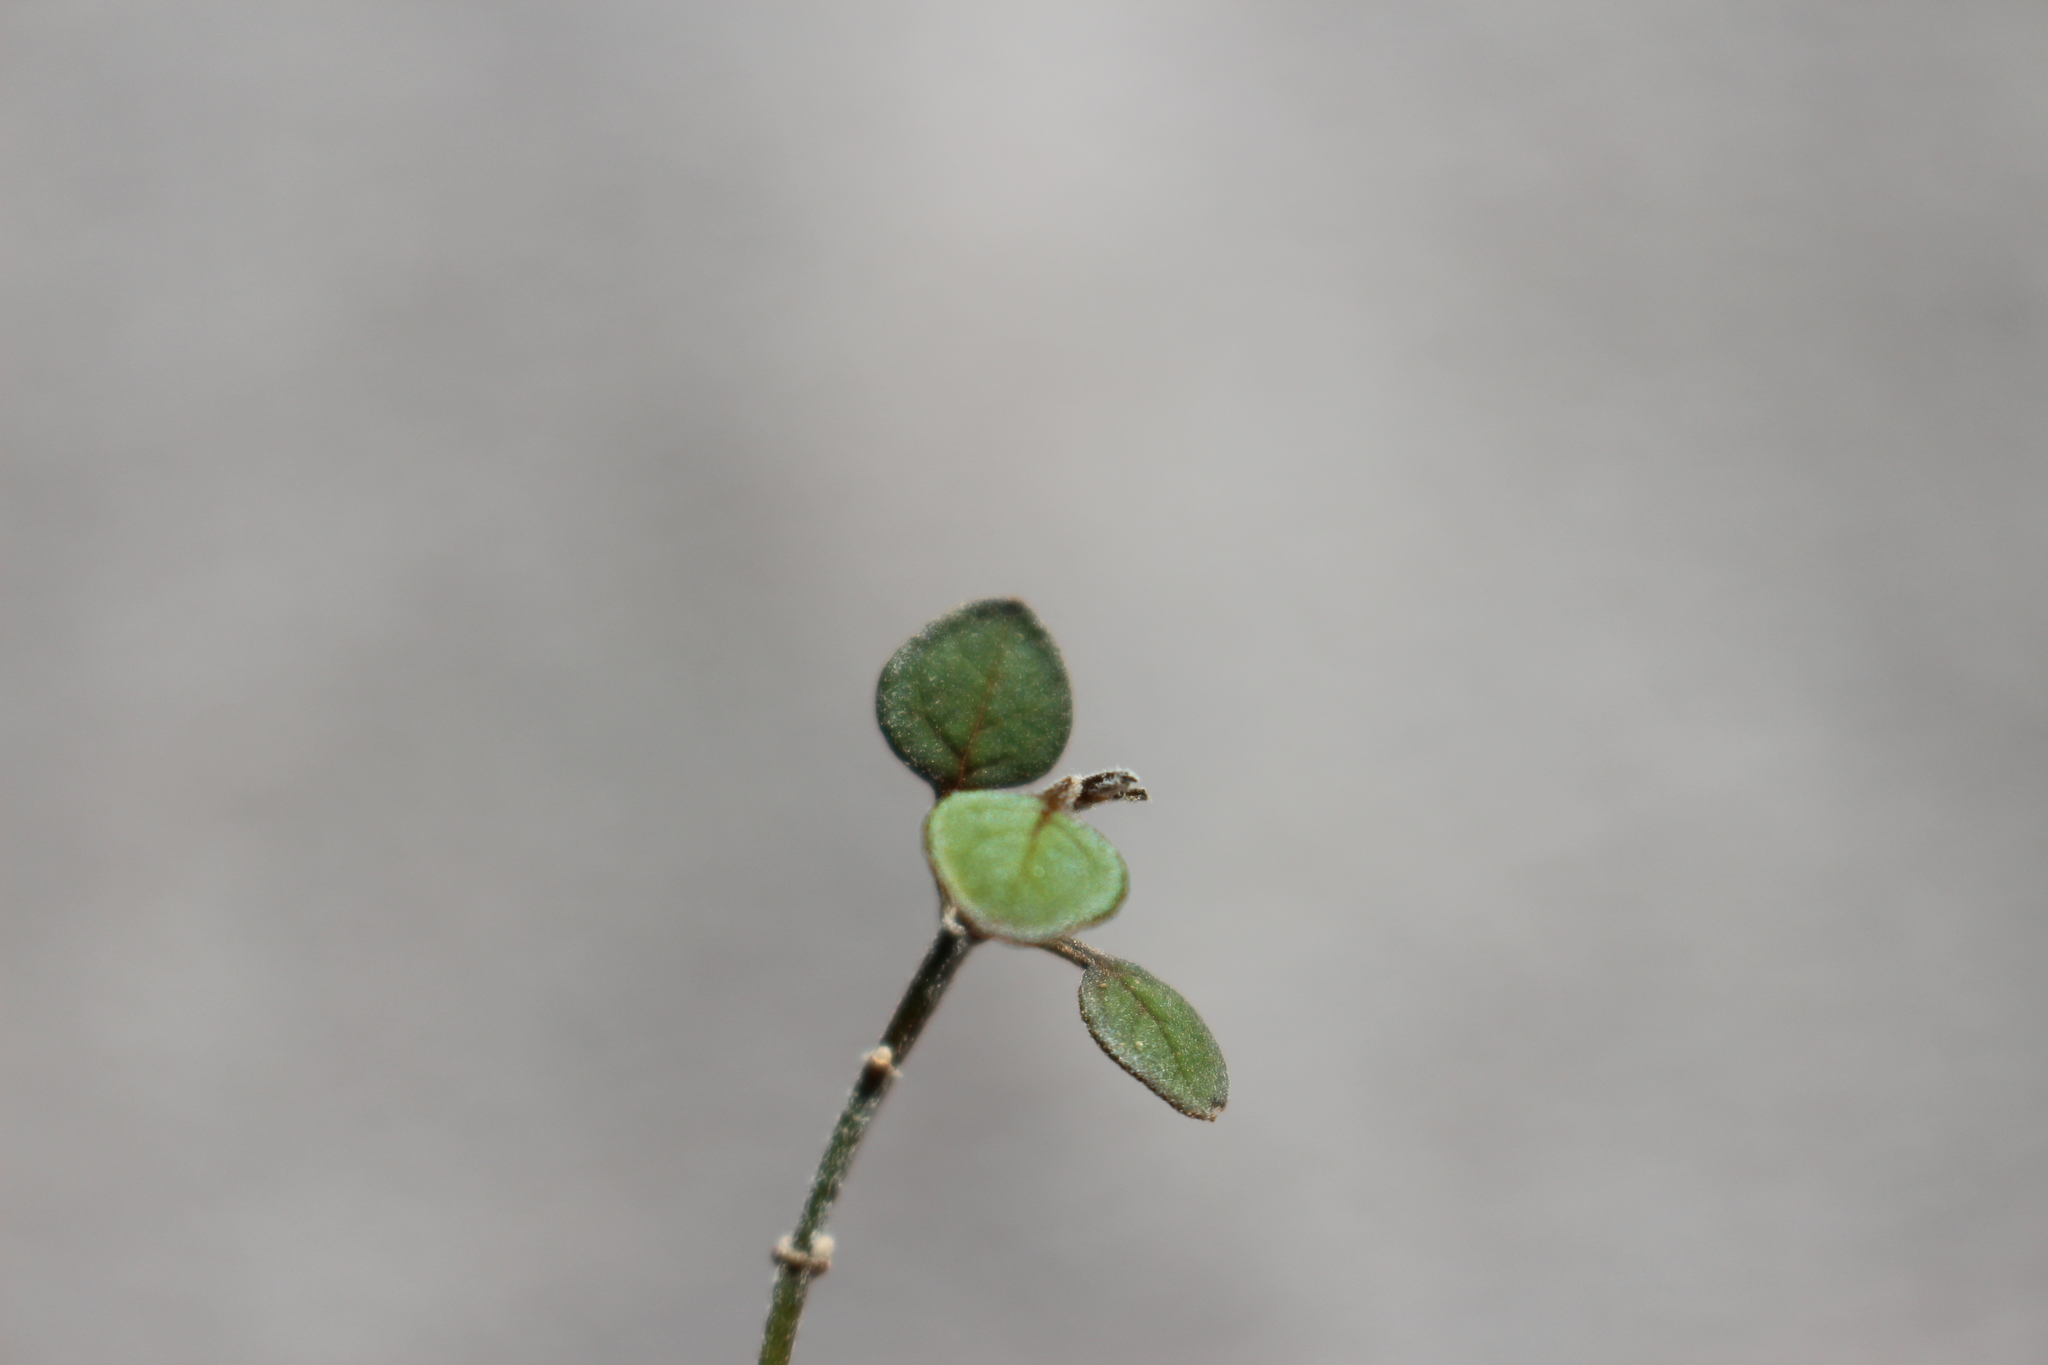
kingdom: Plantae
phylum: Tracheophyta
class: Magnoliopsida
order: Lamiales
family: Lamiaceae
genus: Teucrium
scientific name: Teucrium parvifolium
